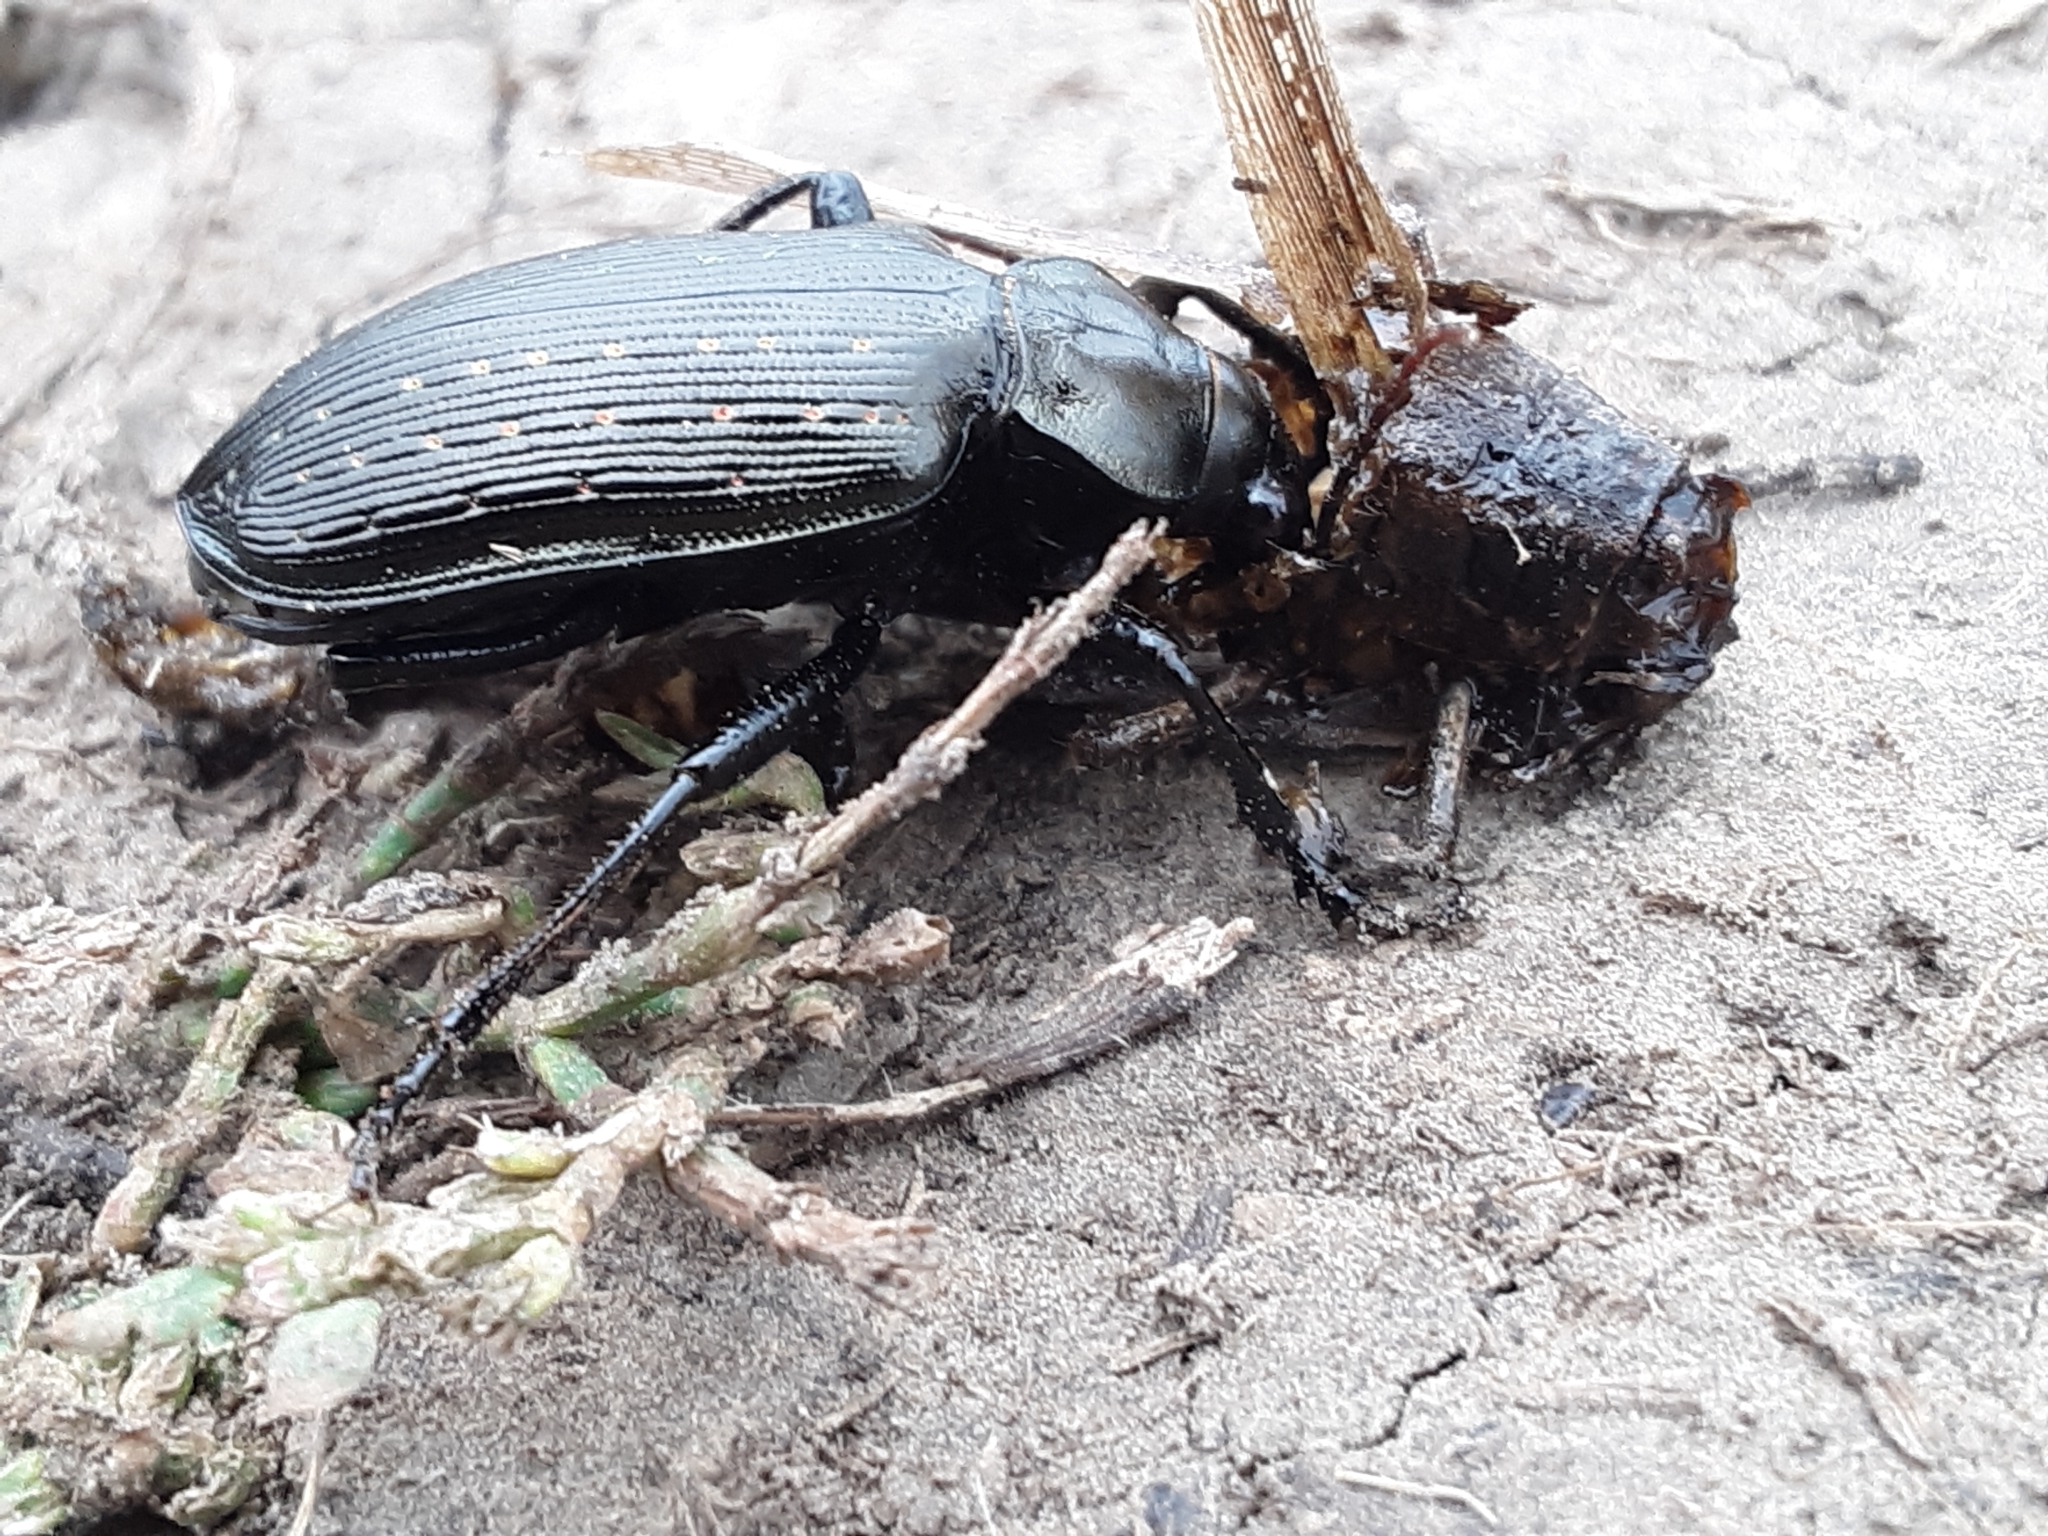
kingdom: Animalia
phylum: Arthropoda
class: Insecta
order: Coleoptera
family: Carabidae
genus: Calosoma
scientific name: Calosoma sayi
